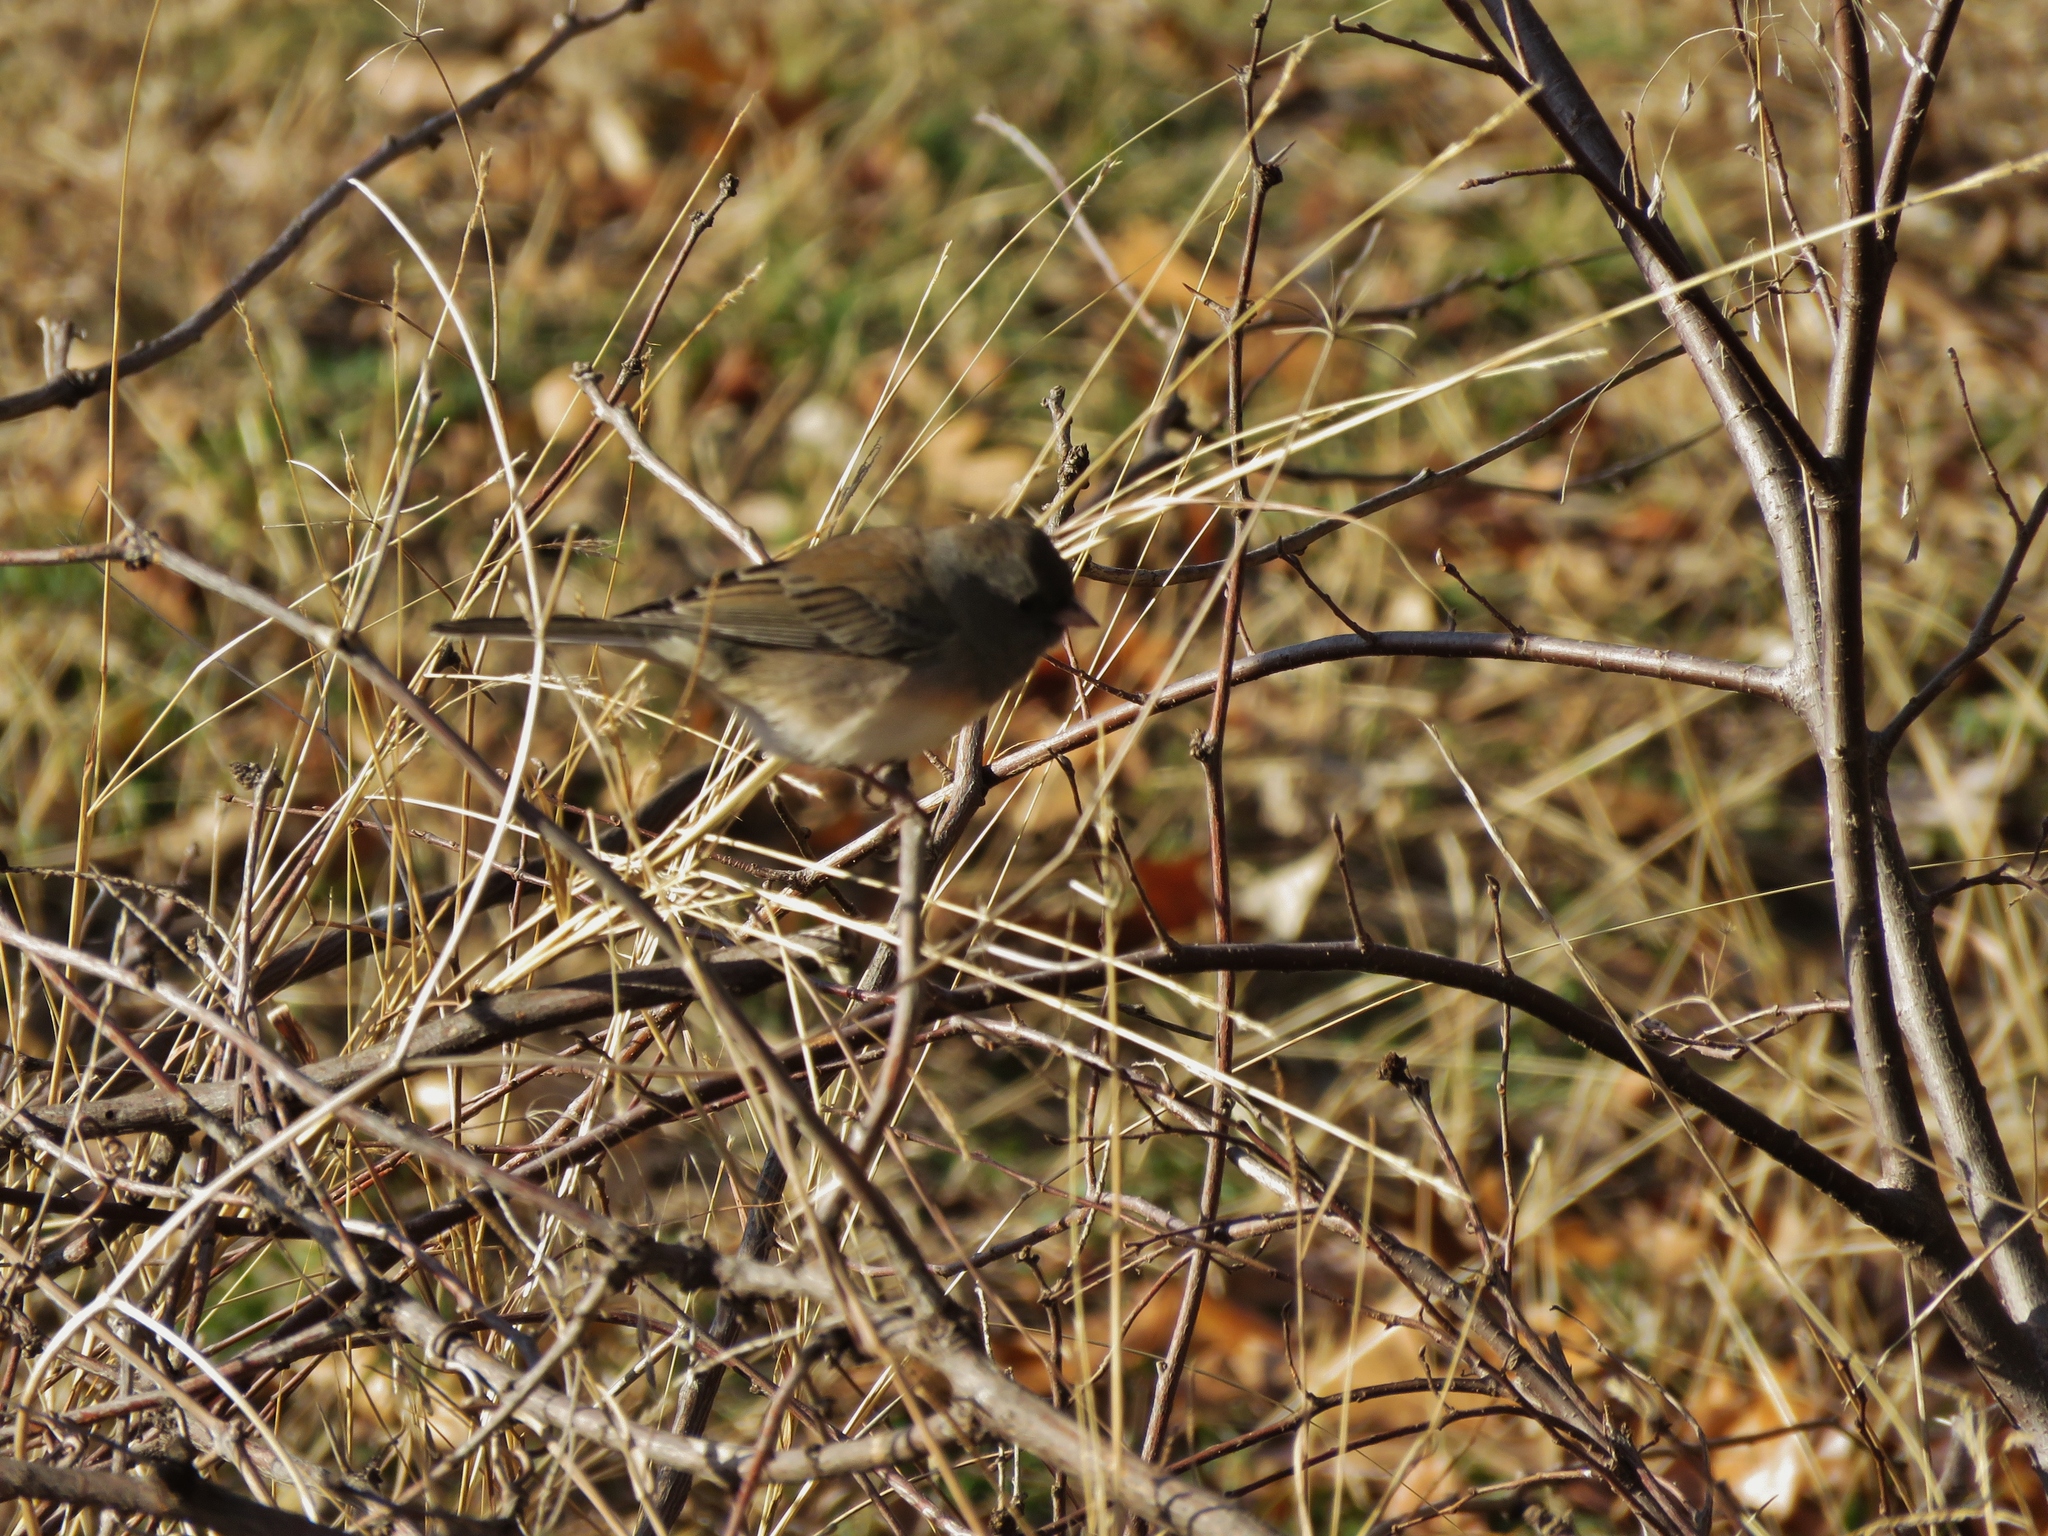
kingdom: Animalia
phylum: Chordata
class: Aves
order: Passeriformes
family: Passerellidae
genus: Junco
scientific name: Junco hyemalis
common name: Dark-eyed junco
